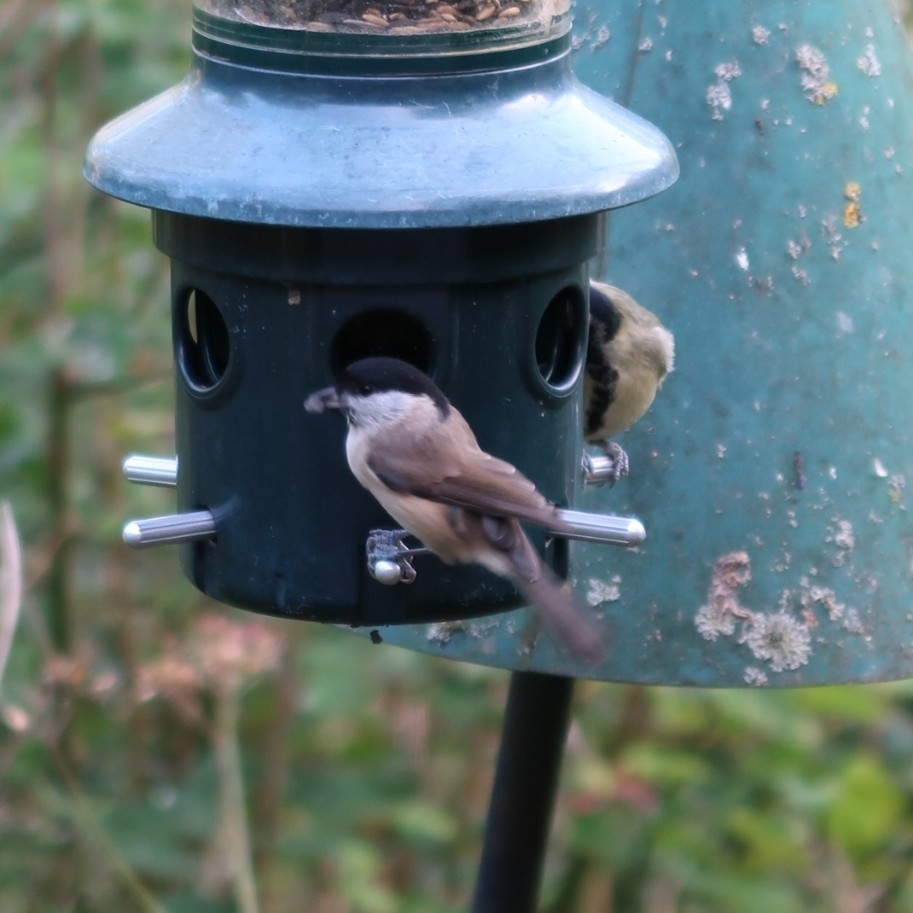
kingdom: Animalia
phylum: Chordata
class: Aves
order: Passeriformes
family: Paridae
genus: Poecile
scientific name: Poecile palustris
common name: Marsh tit
